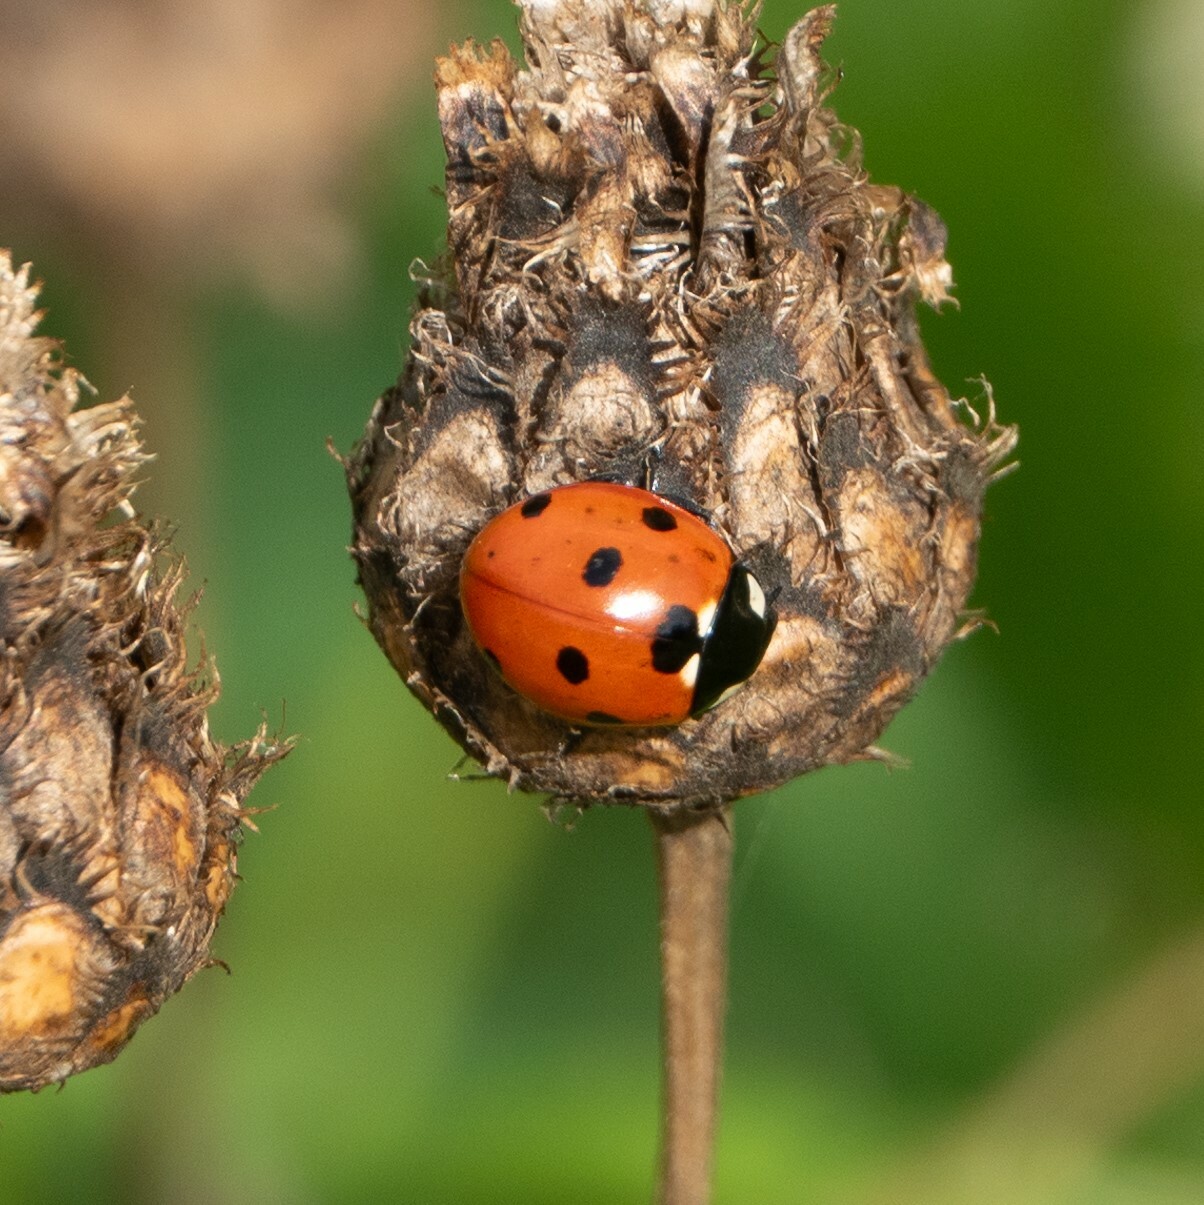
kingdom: Animalia
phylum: Arthropoda
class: Insecta
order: Coleoptera
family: Coccinellidae
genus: Coccinella
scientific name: Coccinella septempunctata
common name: Sevenspotted lady beetle
